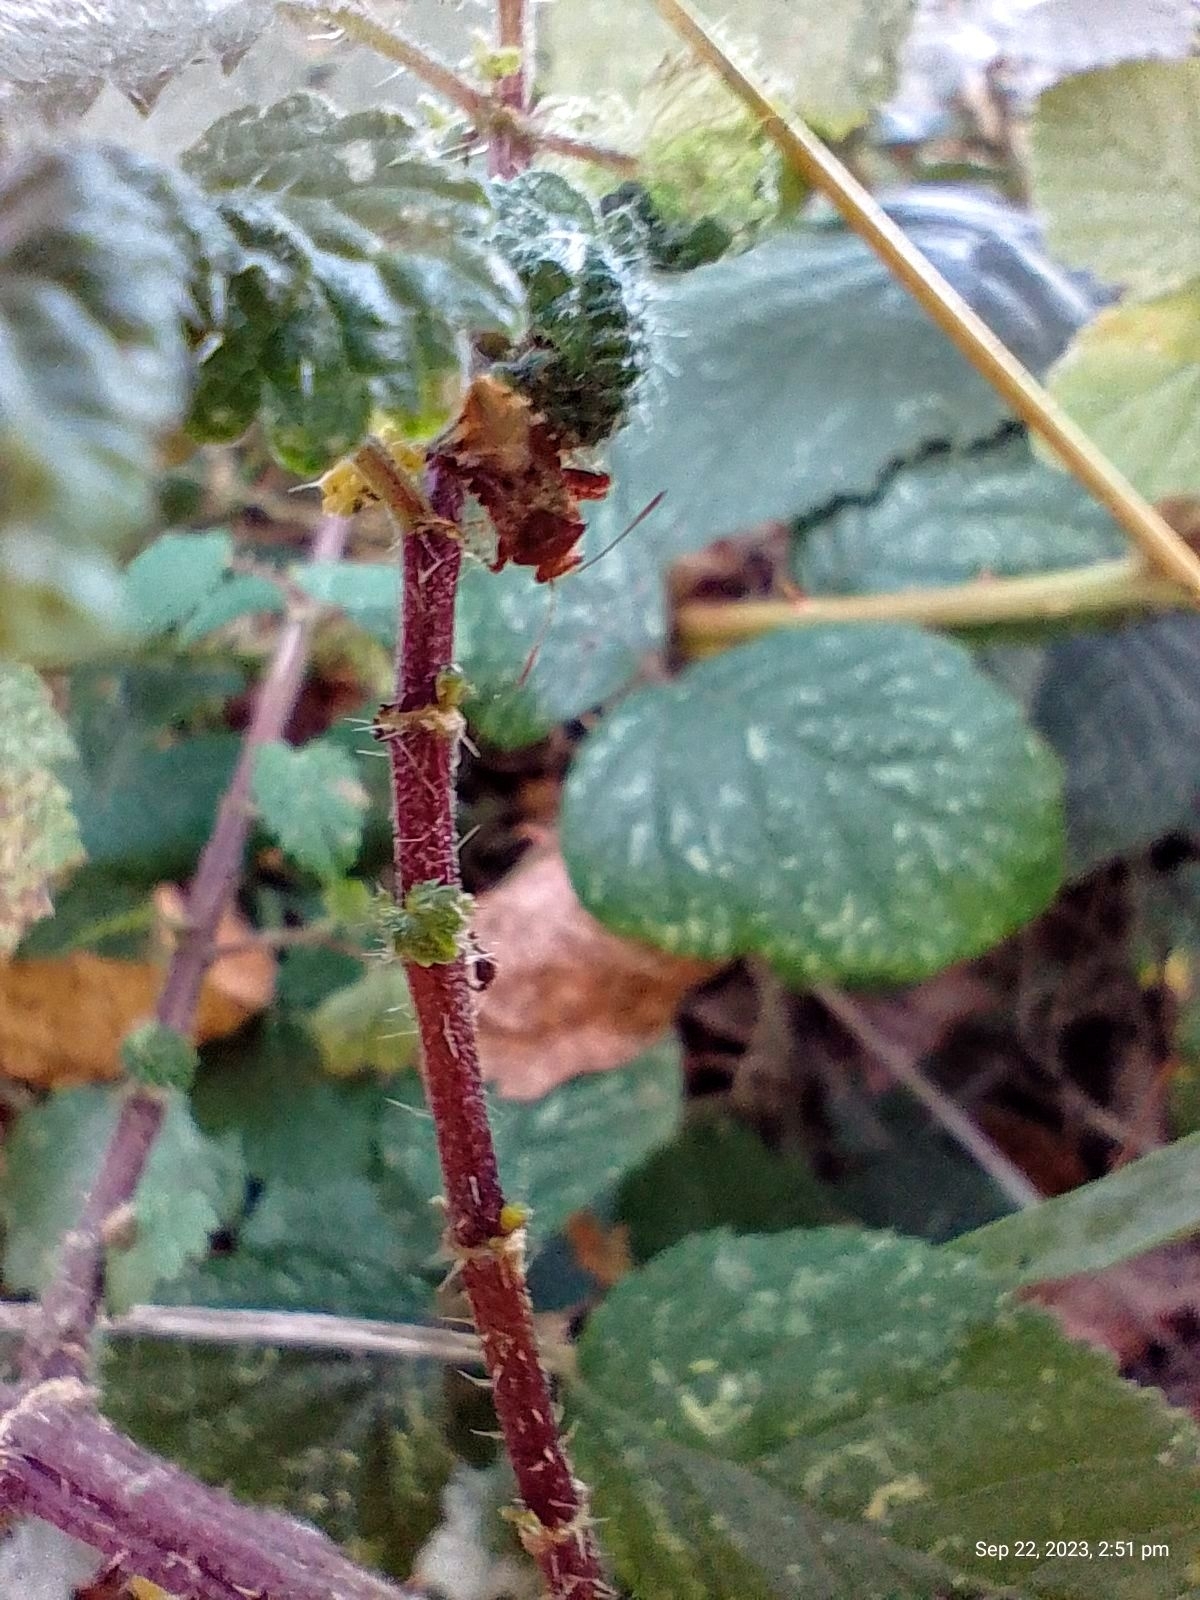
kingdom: Animalia
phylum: Arthropoda
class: Insecta
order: Hemiptera
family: Rhopalidae
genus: Rhopalus
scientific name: Rhopalus subrufus
